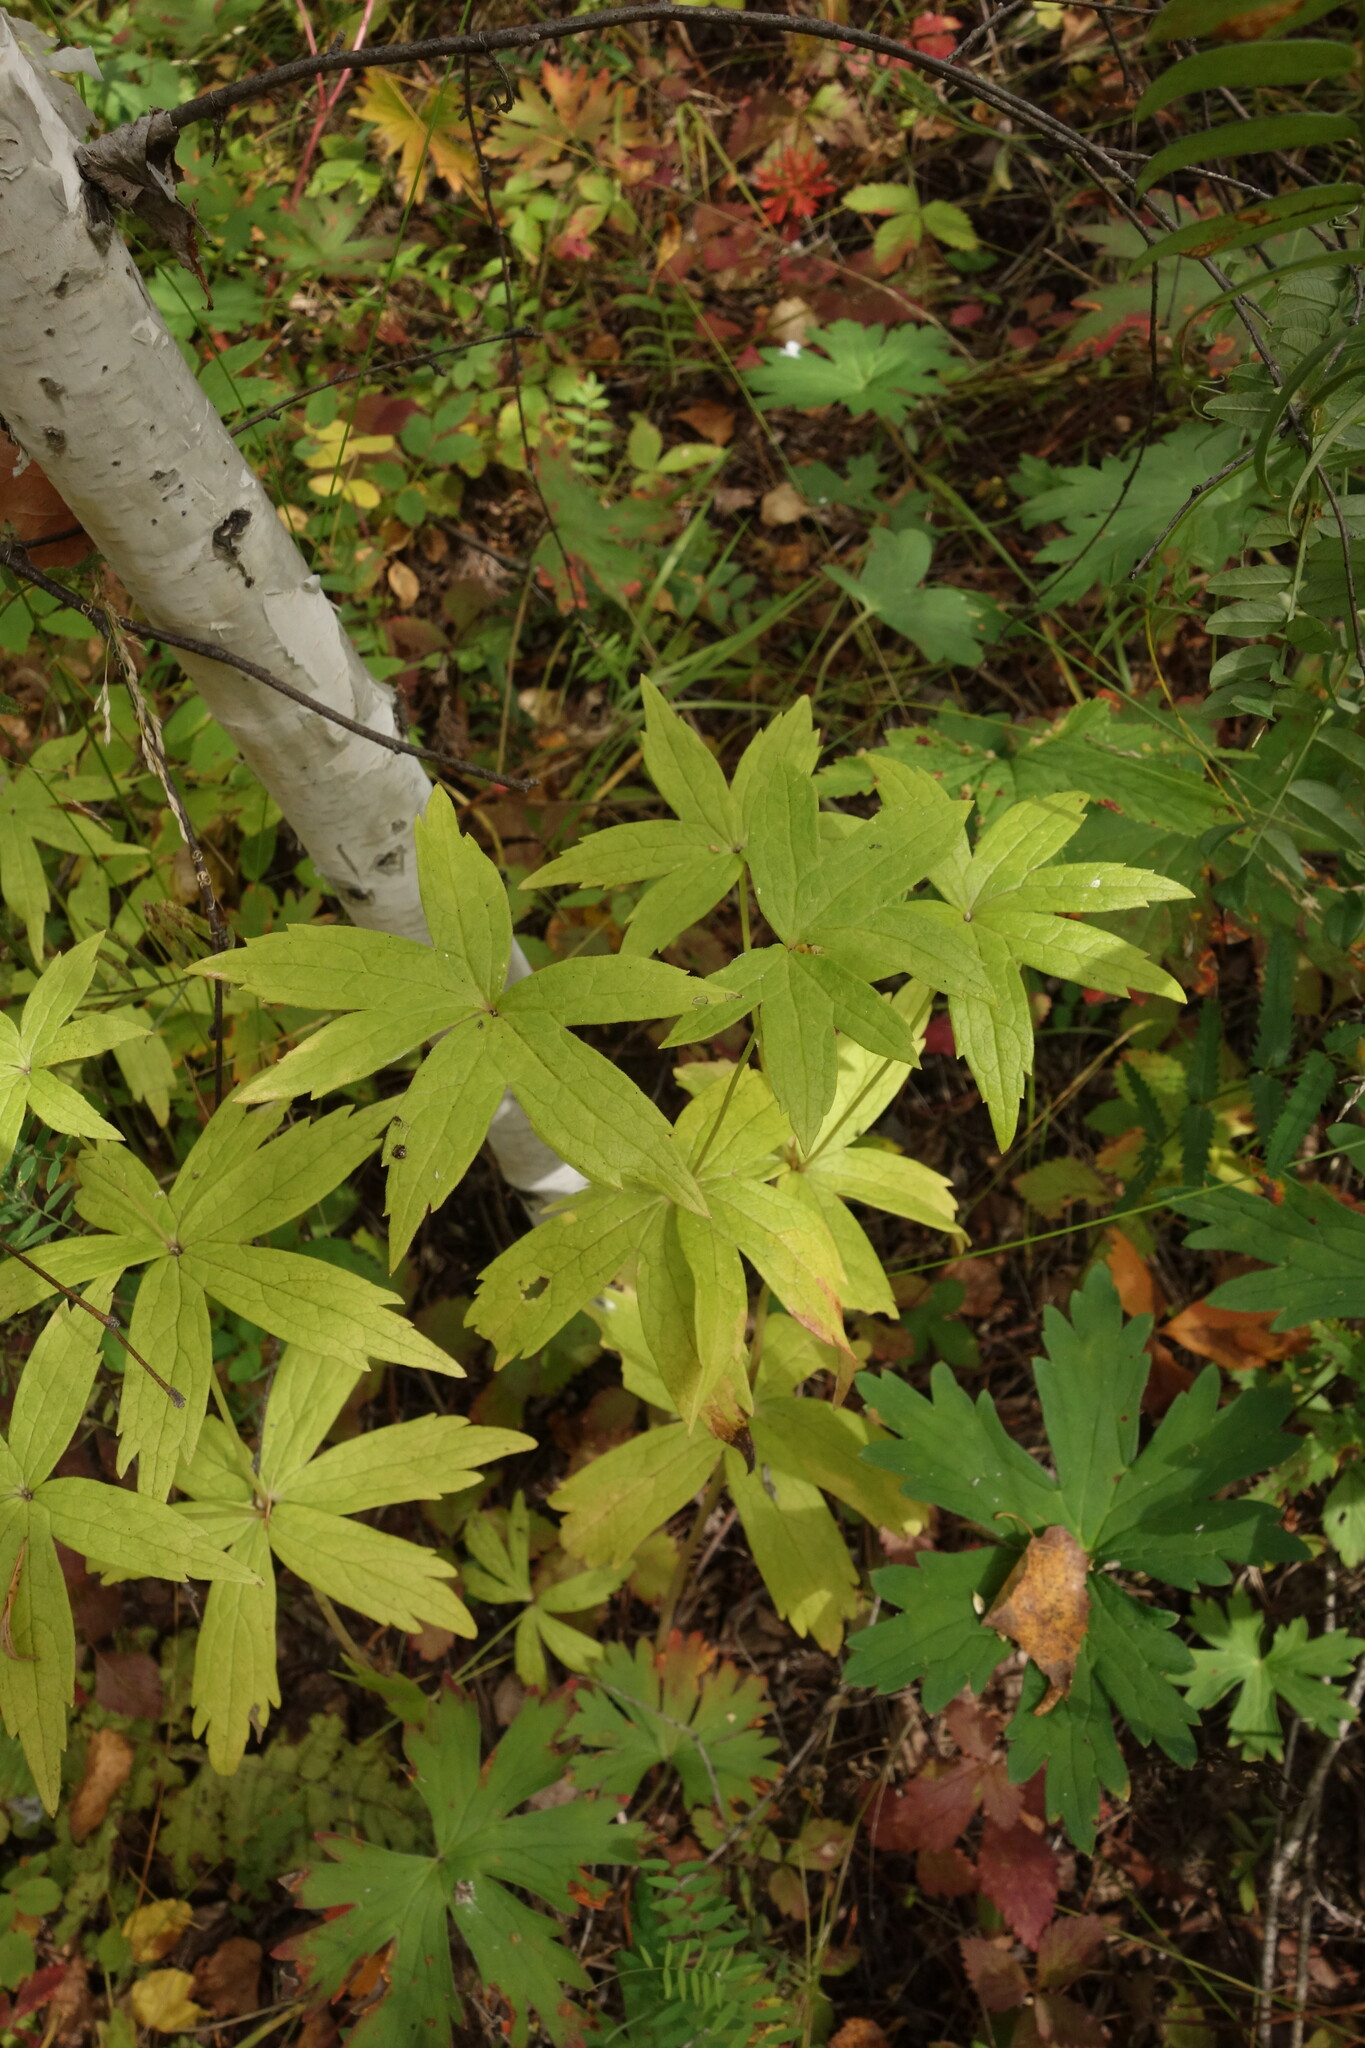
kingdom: Plantae
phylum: Tracheophyta
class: Magnoliopsida
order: Ranunculales
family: Ranunculaceae
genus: Anemonastrum
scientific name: Anemonastrum dichotomum
